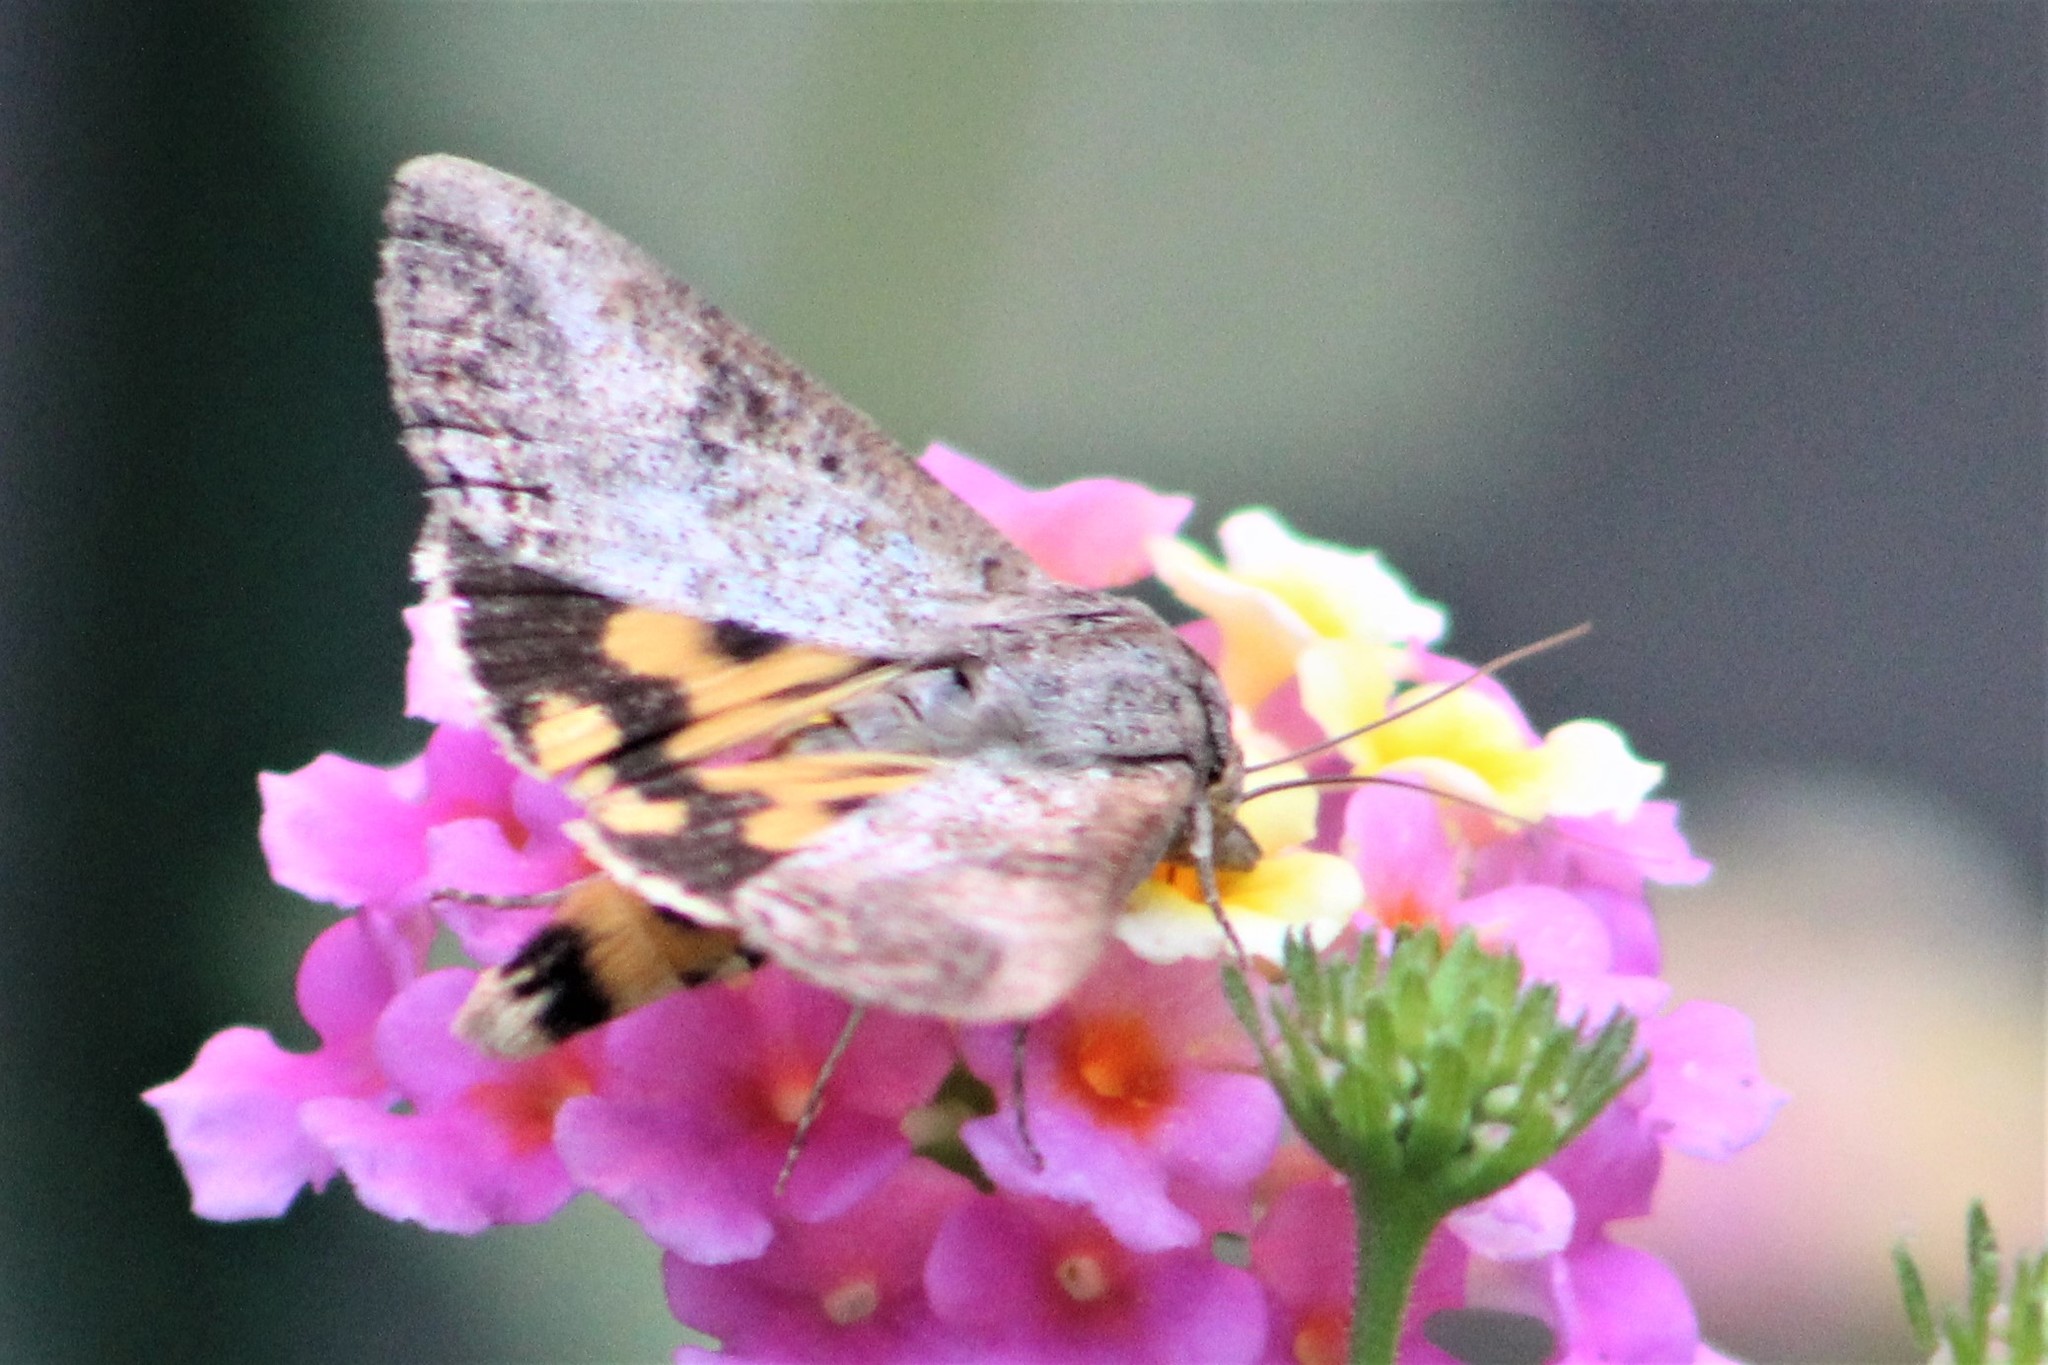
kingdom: Animalia
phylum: Arthropoda
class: Insecta
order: Lepidoptera
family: Erebidae
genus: Hypocala
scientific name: Hypocala andremona
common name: Hypocala moth
